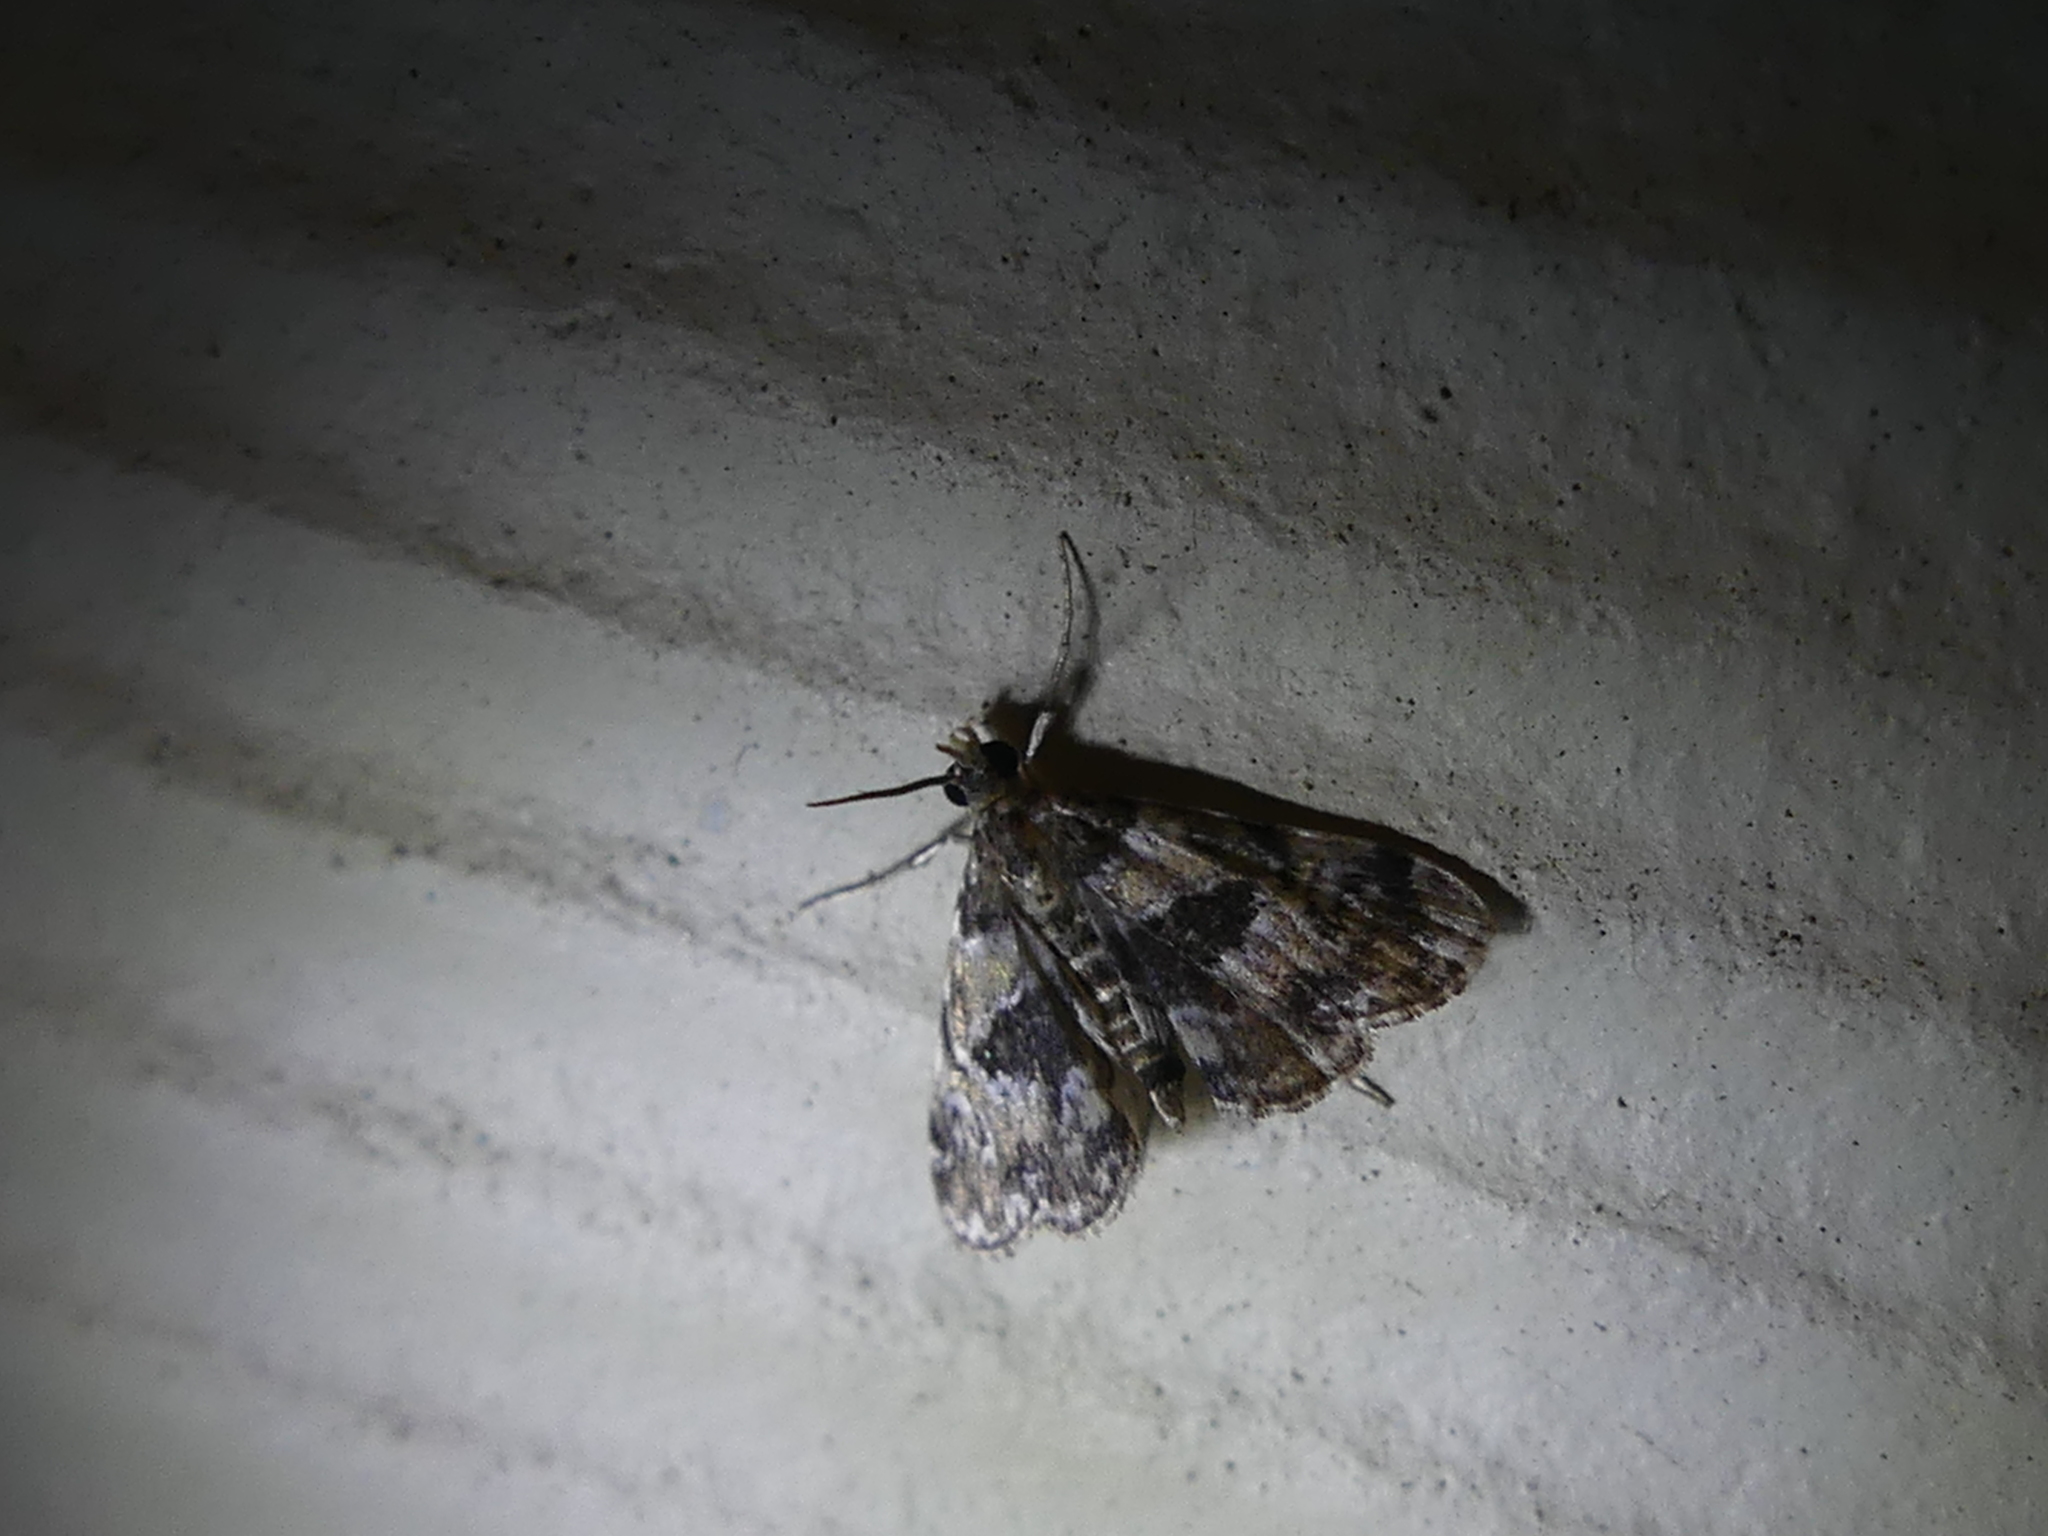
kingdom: Animalia
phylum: Arthropoda
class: Insecta
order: Lepidoptera
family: Crambidae
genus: Elophila
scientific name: Elophila obliteralis
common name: Waterlily leafcutter moth
